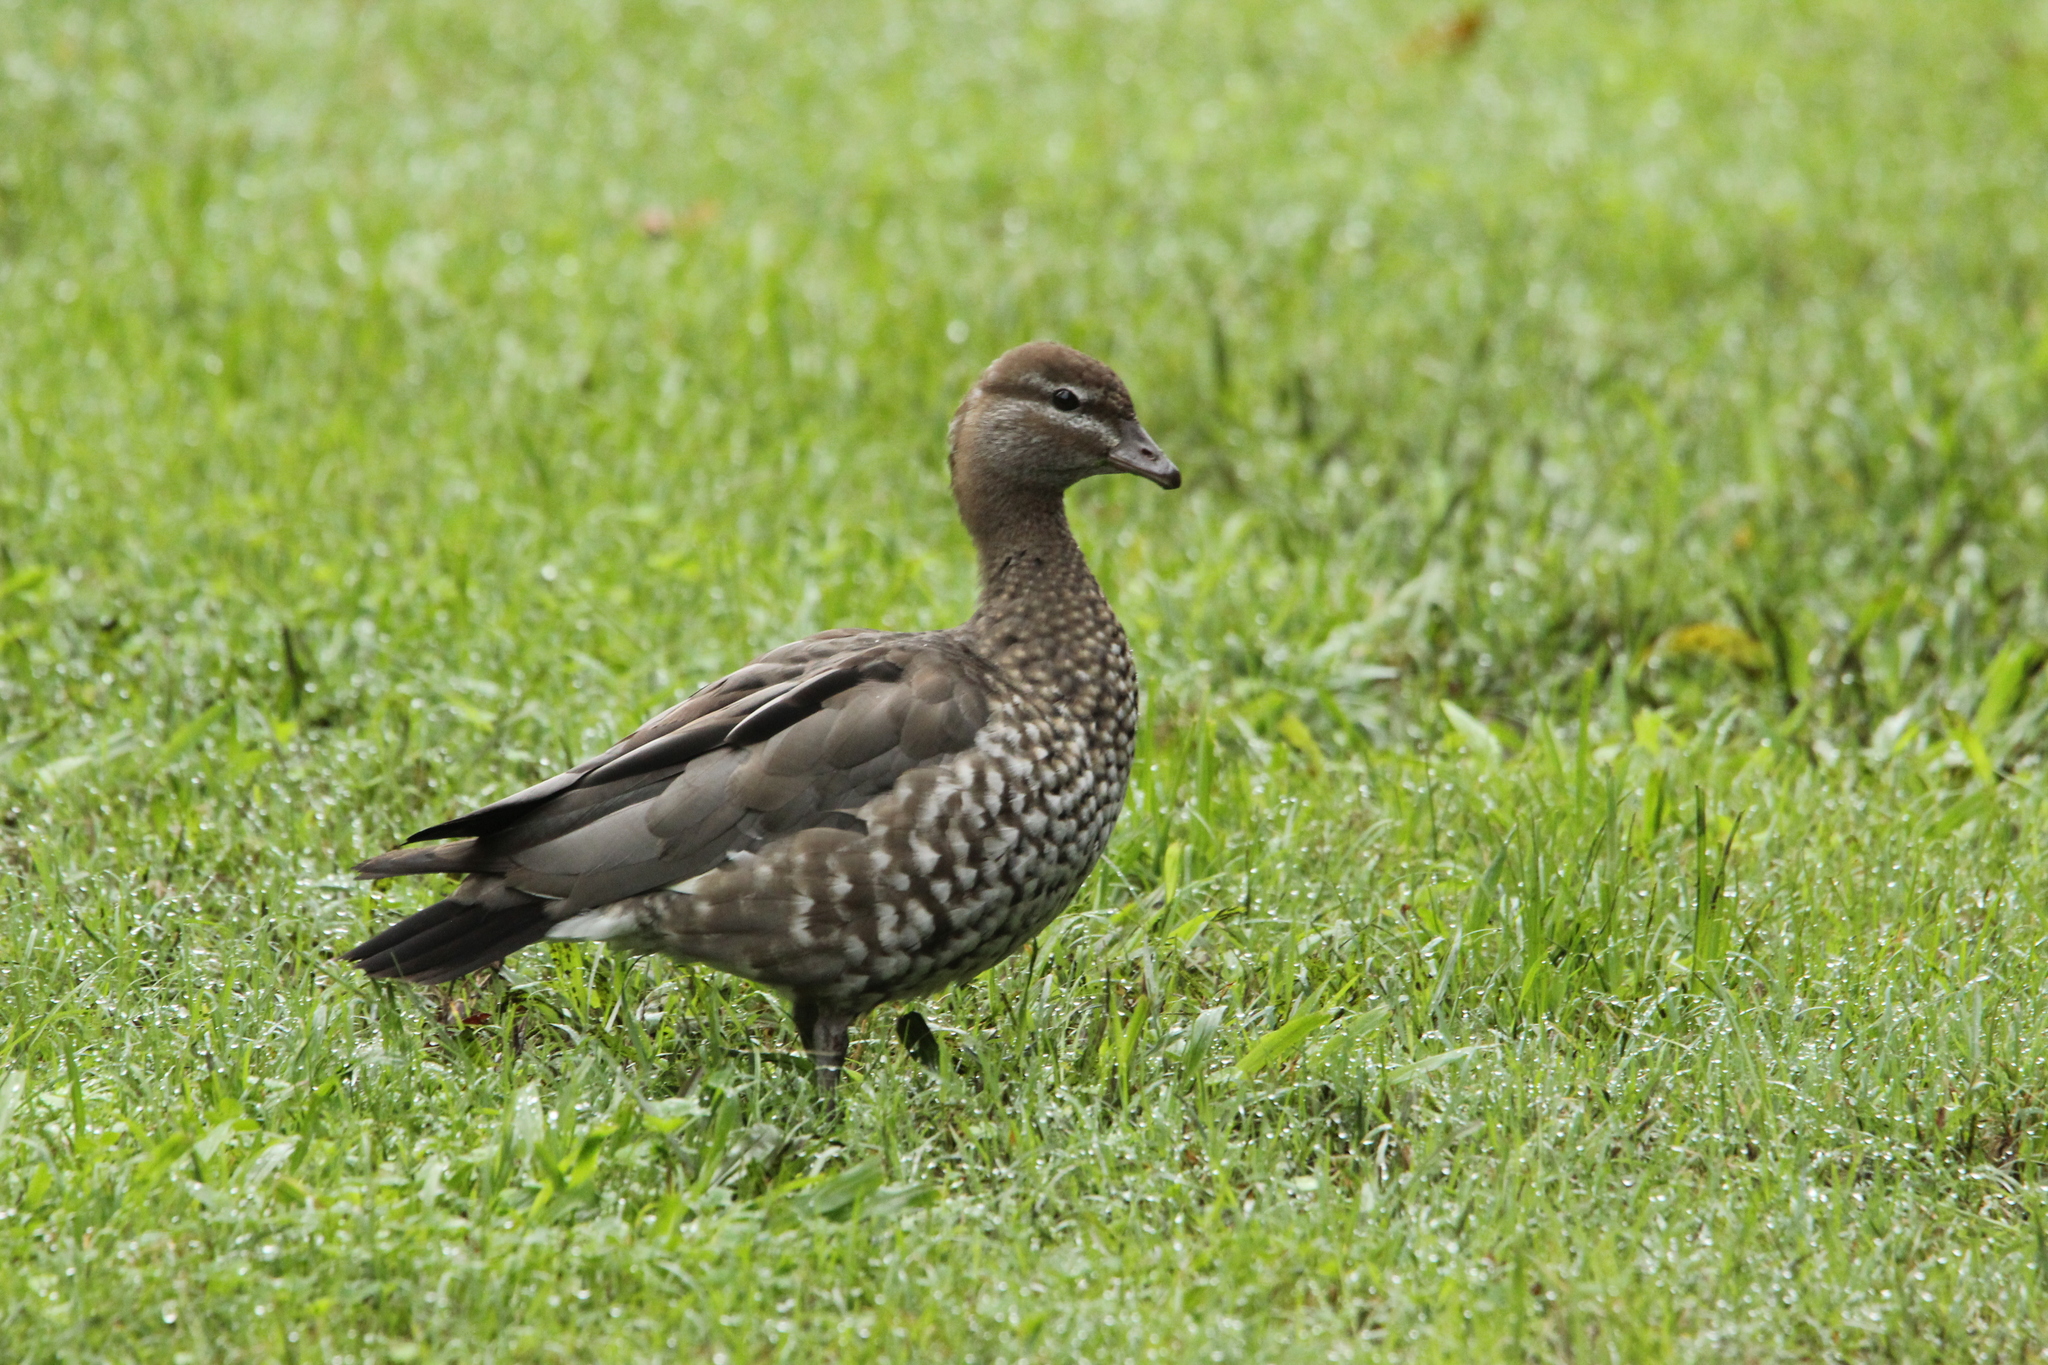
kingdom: Animalia
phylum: Chordata
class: Aves
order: Anseriformes
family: Anatidae
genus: Chenonetta
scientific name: Chenonetta jubata
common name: Maned duck
